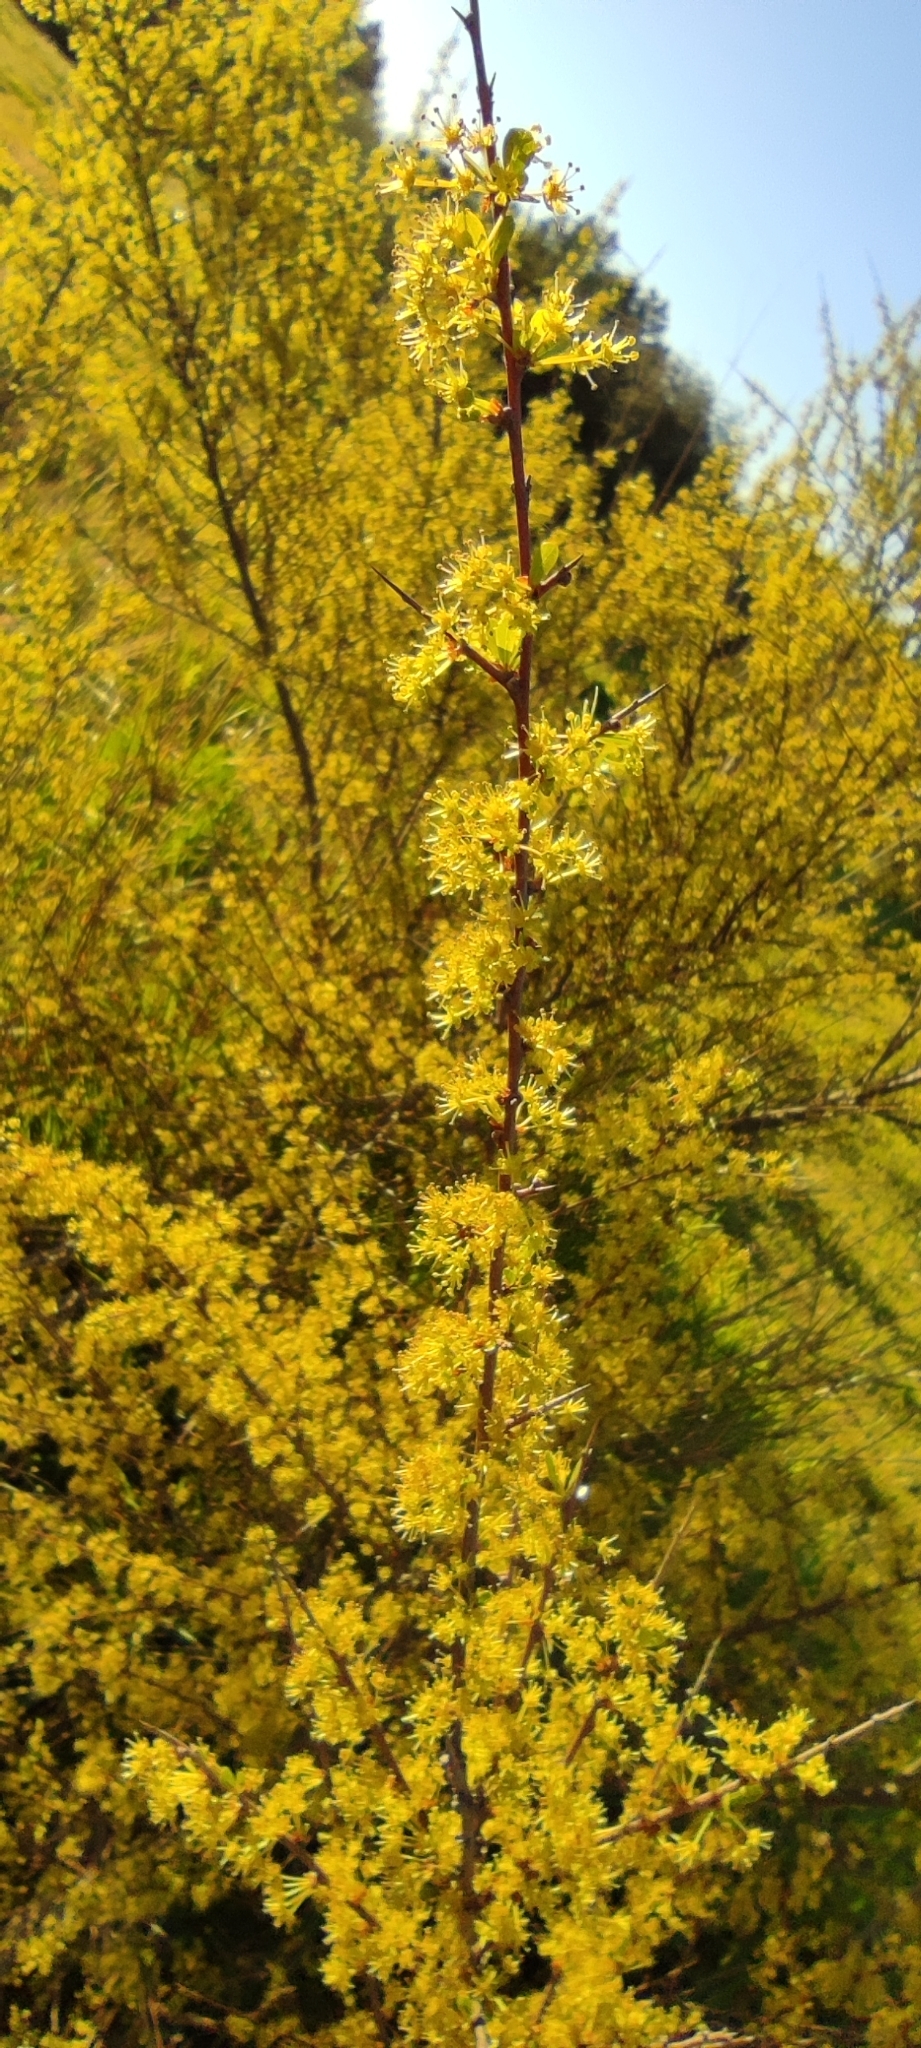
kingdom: Plantae
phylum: Tracheophyta
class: Magnoliopsida
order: Malpighiales
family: Phyllanthaceae
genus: Flueggea
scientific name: Flueggea tinctoria
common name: Tamujo
